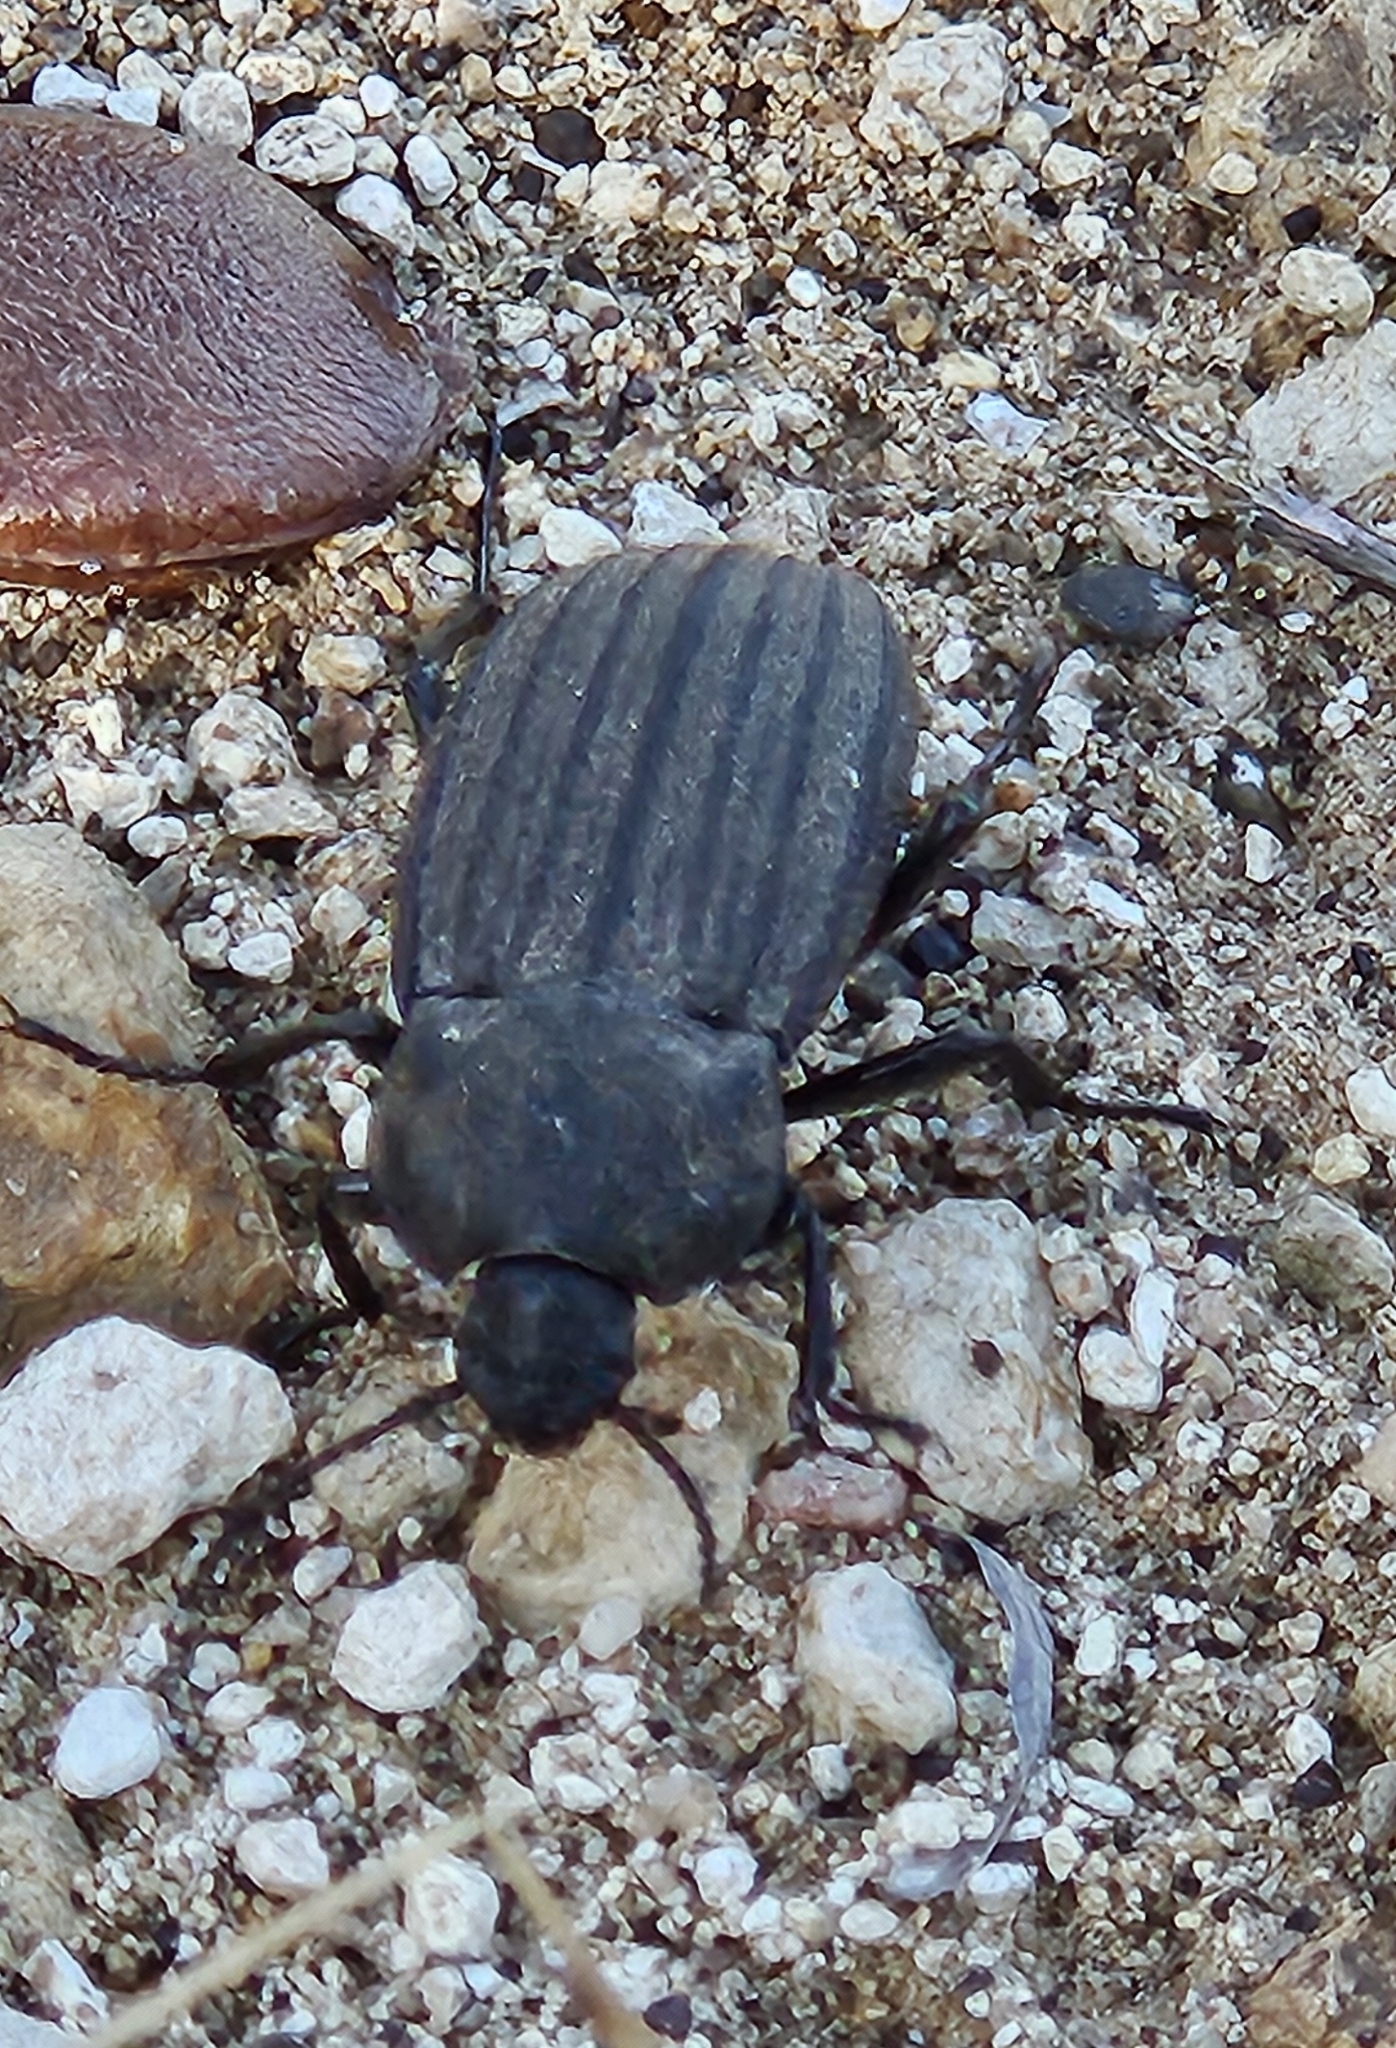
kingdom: Animalia
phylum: Arthropoda
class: Insecta
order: Coleoptera
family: Tenebrionidae
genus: Eleodes
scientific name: Eleodes tricostata
